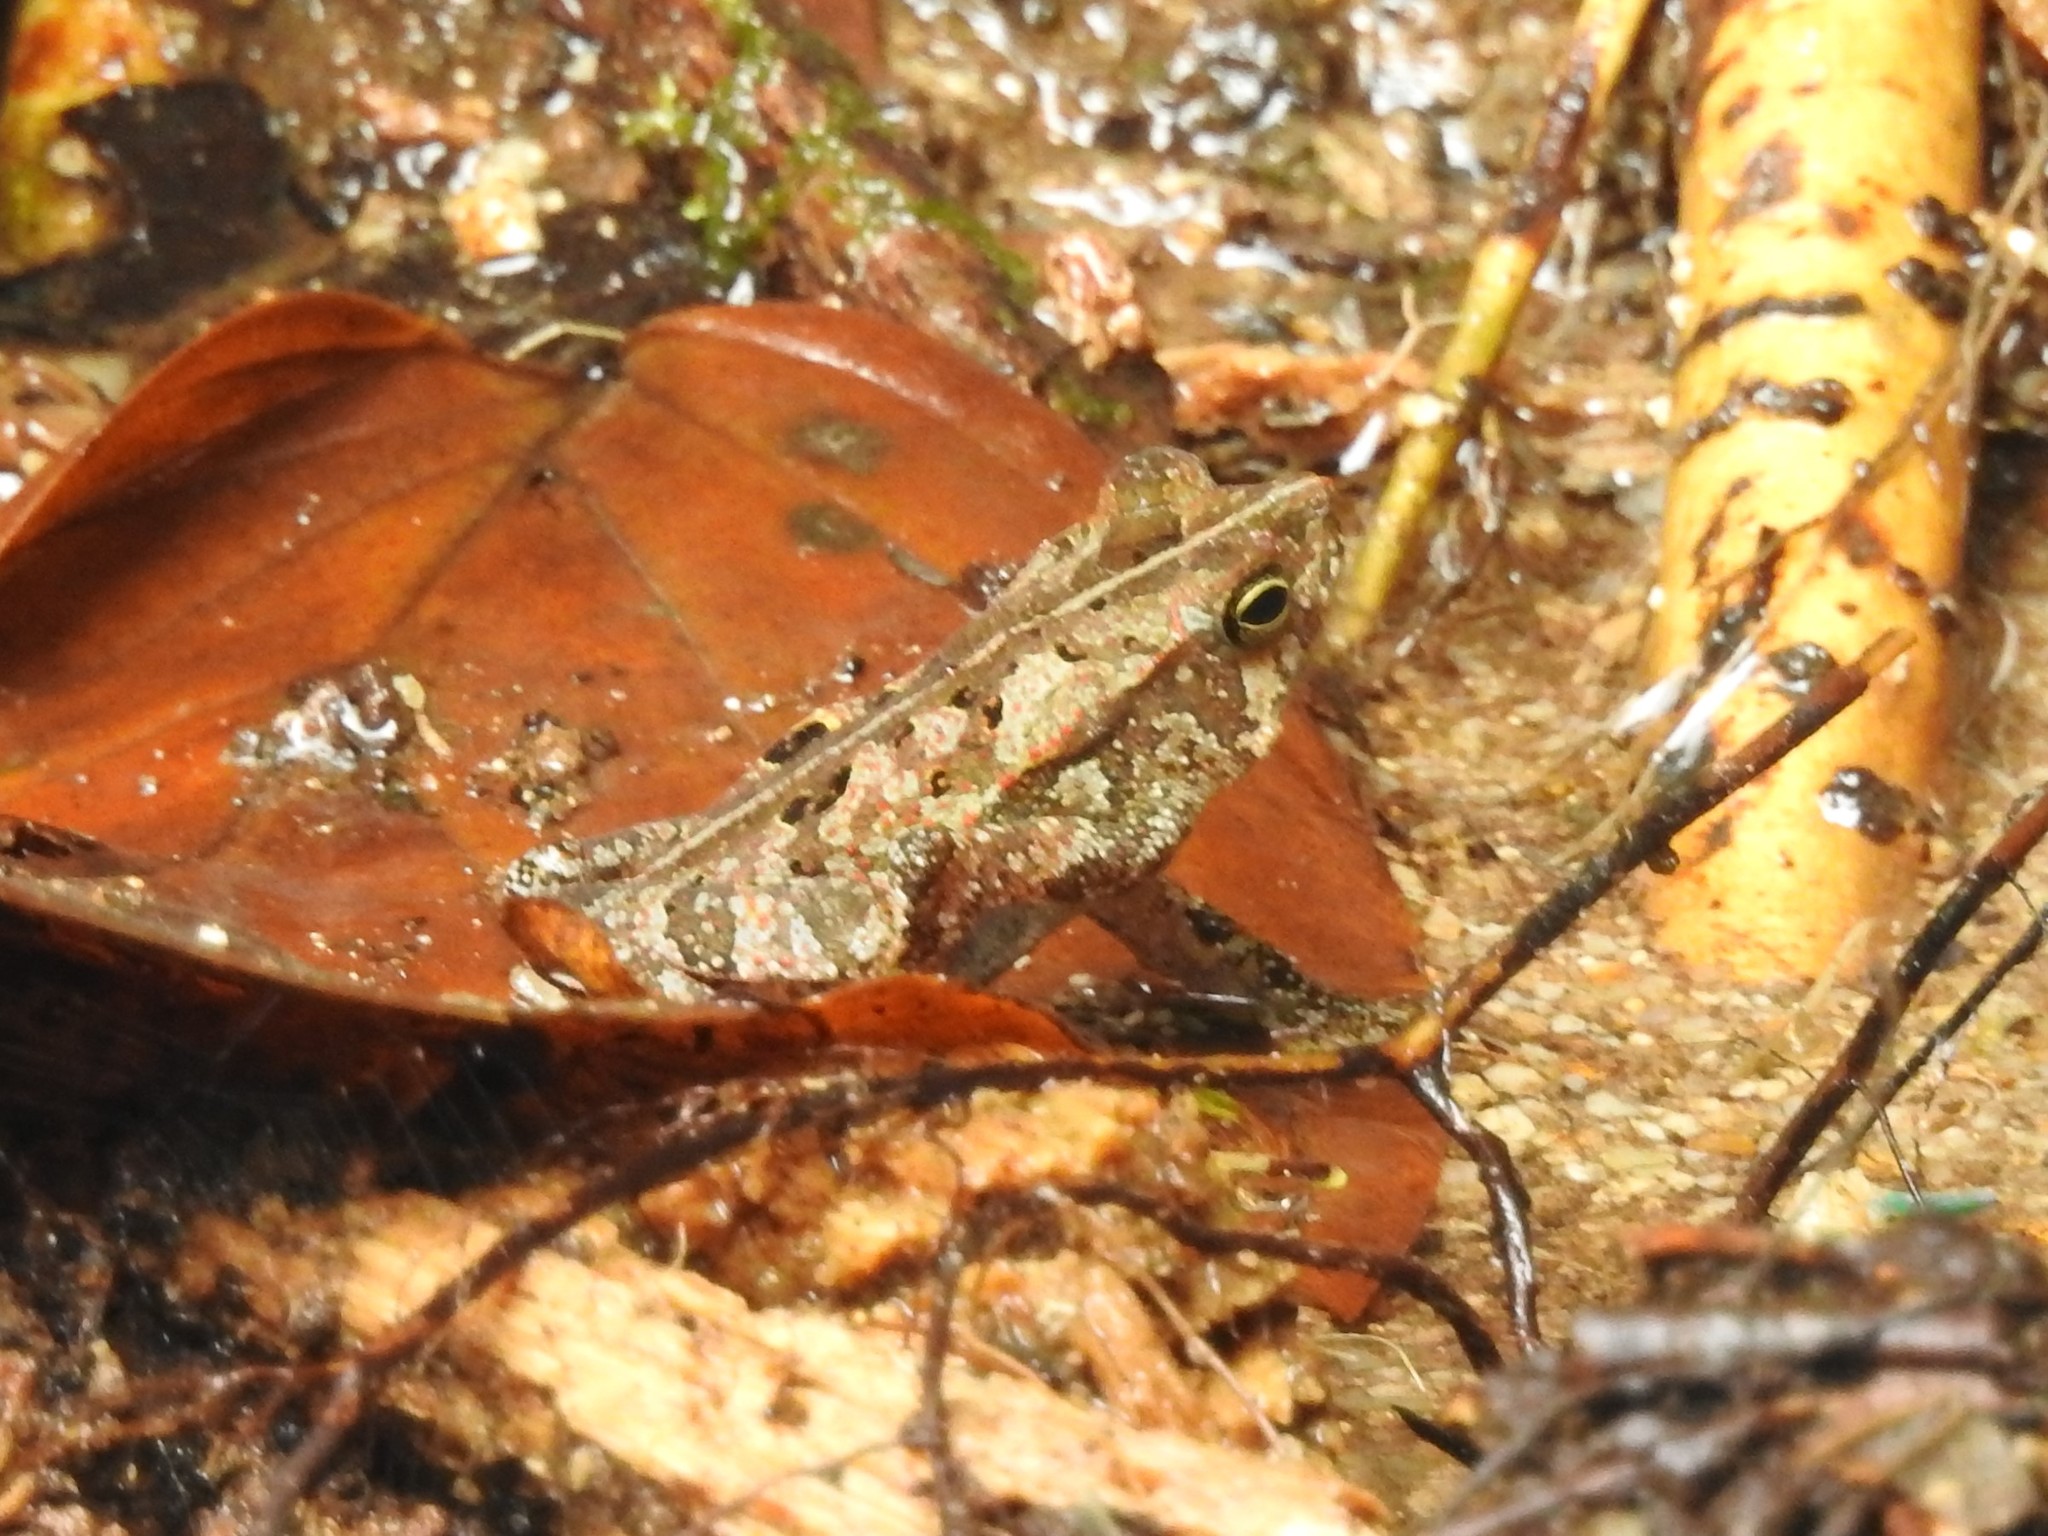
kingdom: Animalia
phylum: Chordata
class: Amphibia
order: Anura
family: Bufonidae
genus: Rhinella
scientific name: Rhinella margaritifera
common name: Mitred toad
